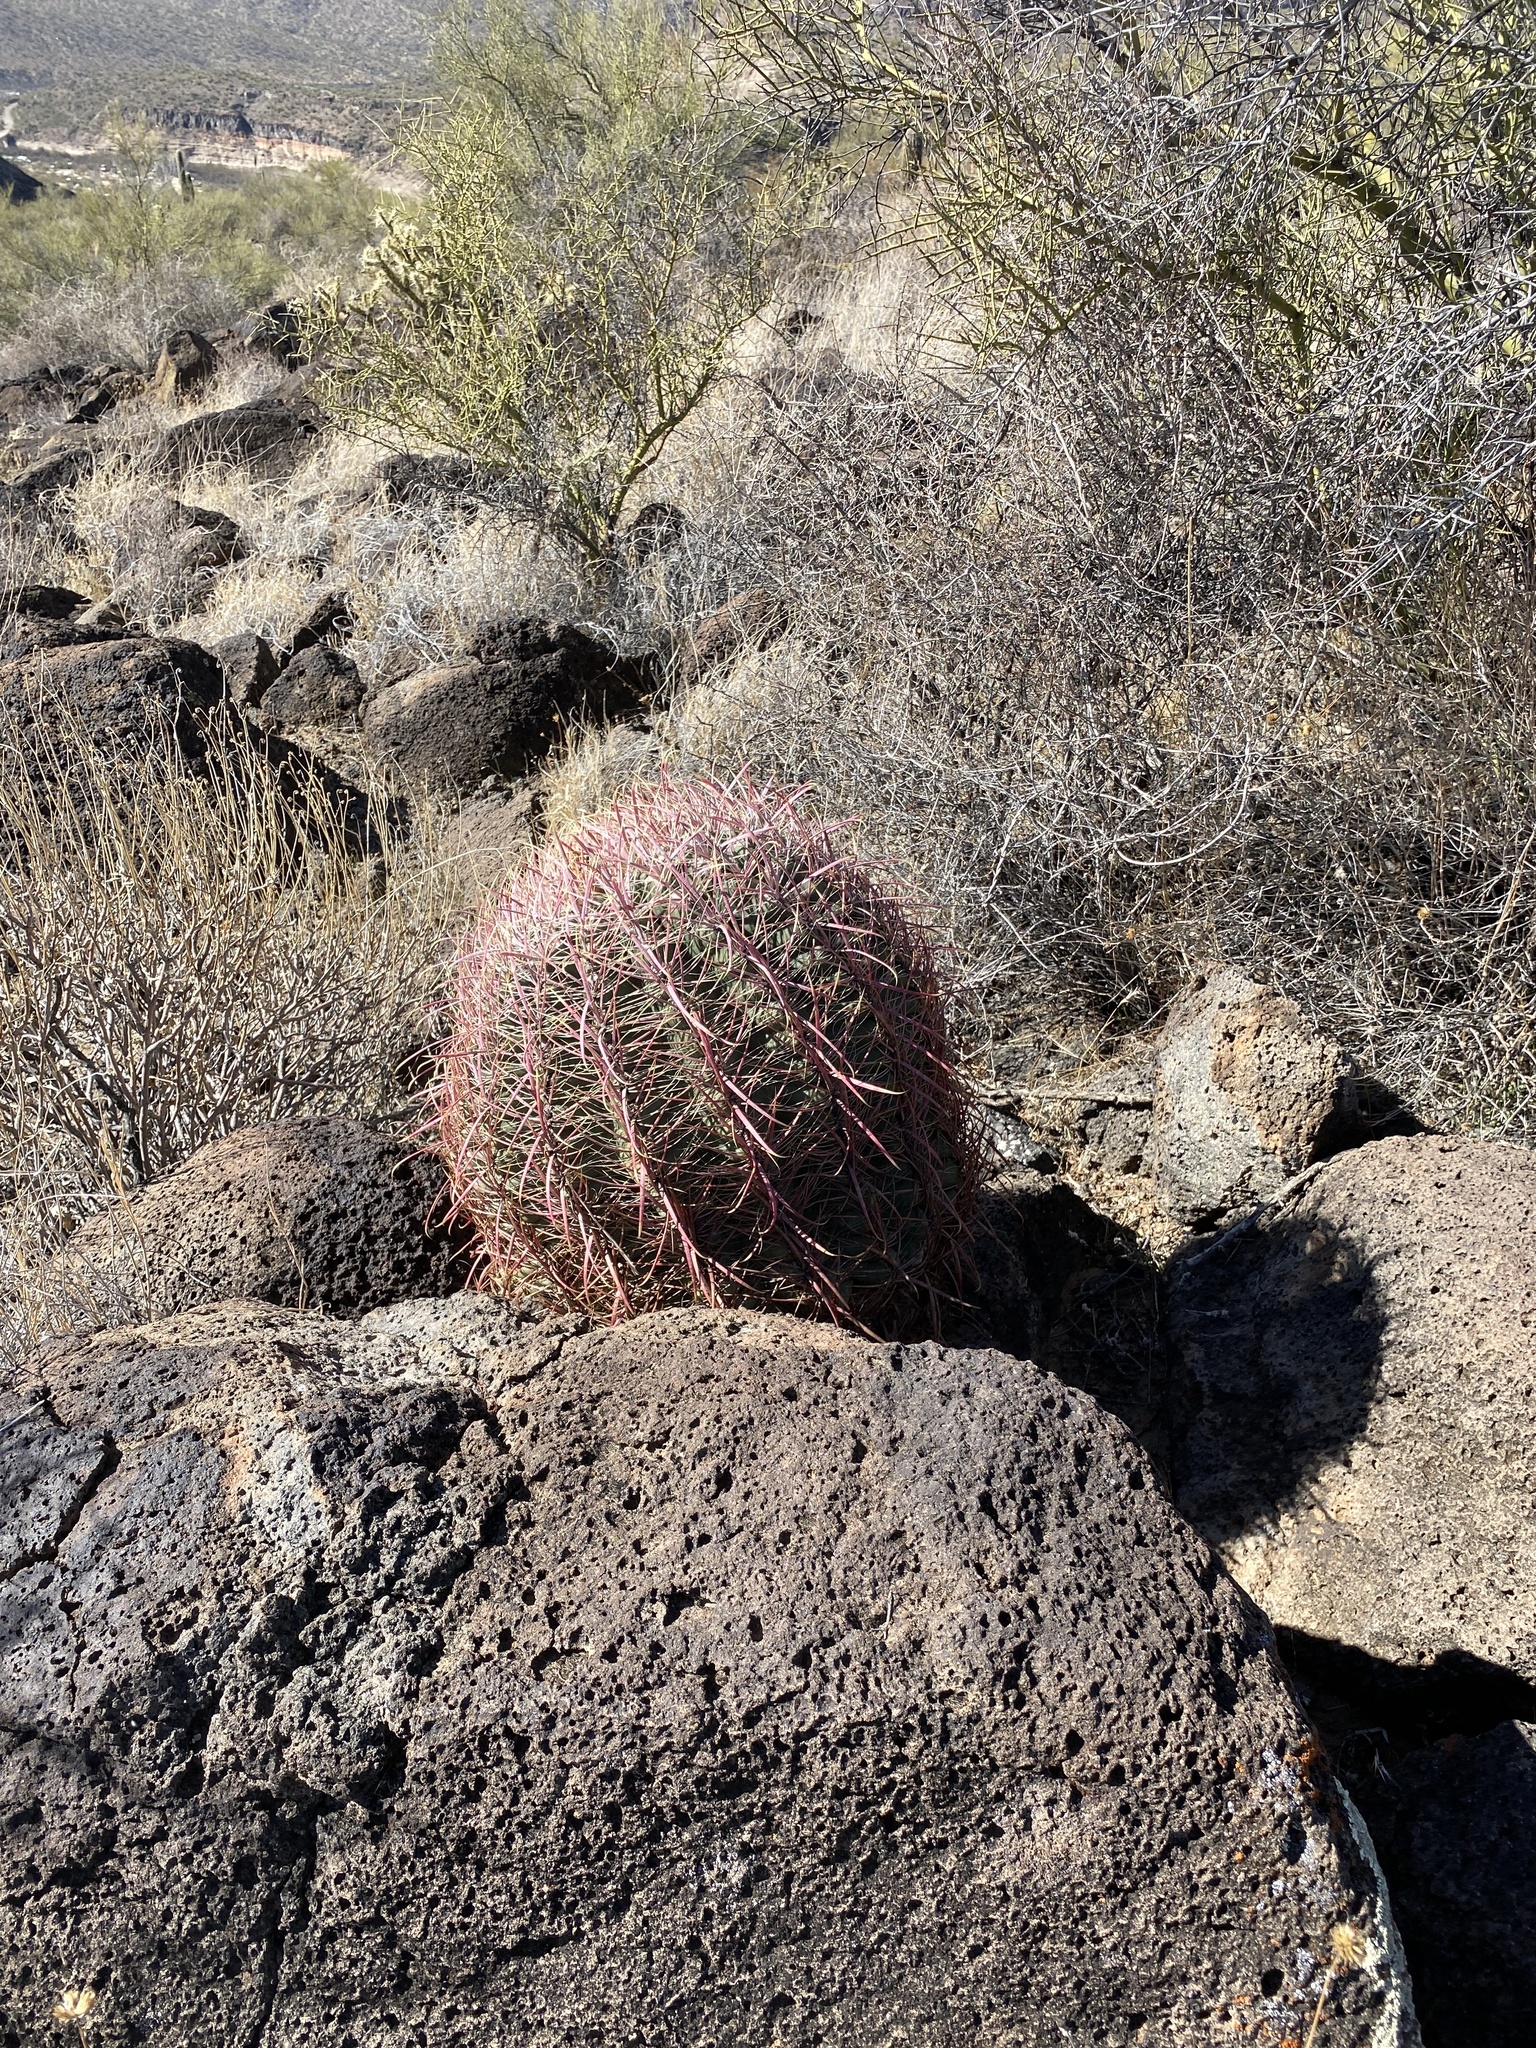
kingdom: Plantae
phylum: Tracheophyta
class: Magnoliopsida
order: Caryophyllales
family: Cactaceae
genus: Ferocactus
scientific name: Ferocactus cylindraceus
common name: California barrel cactus
